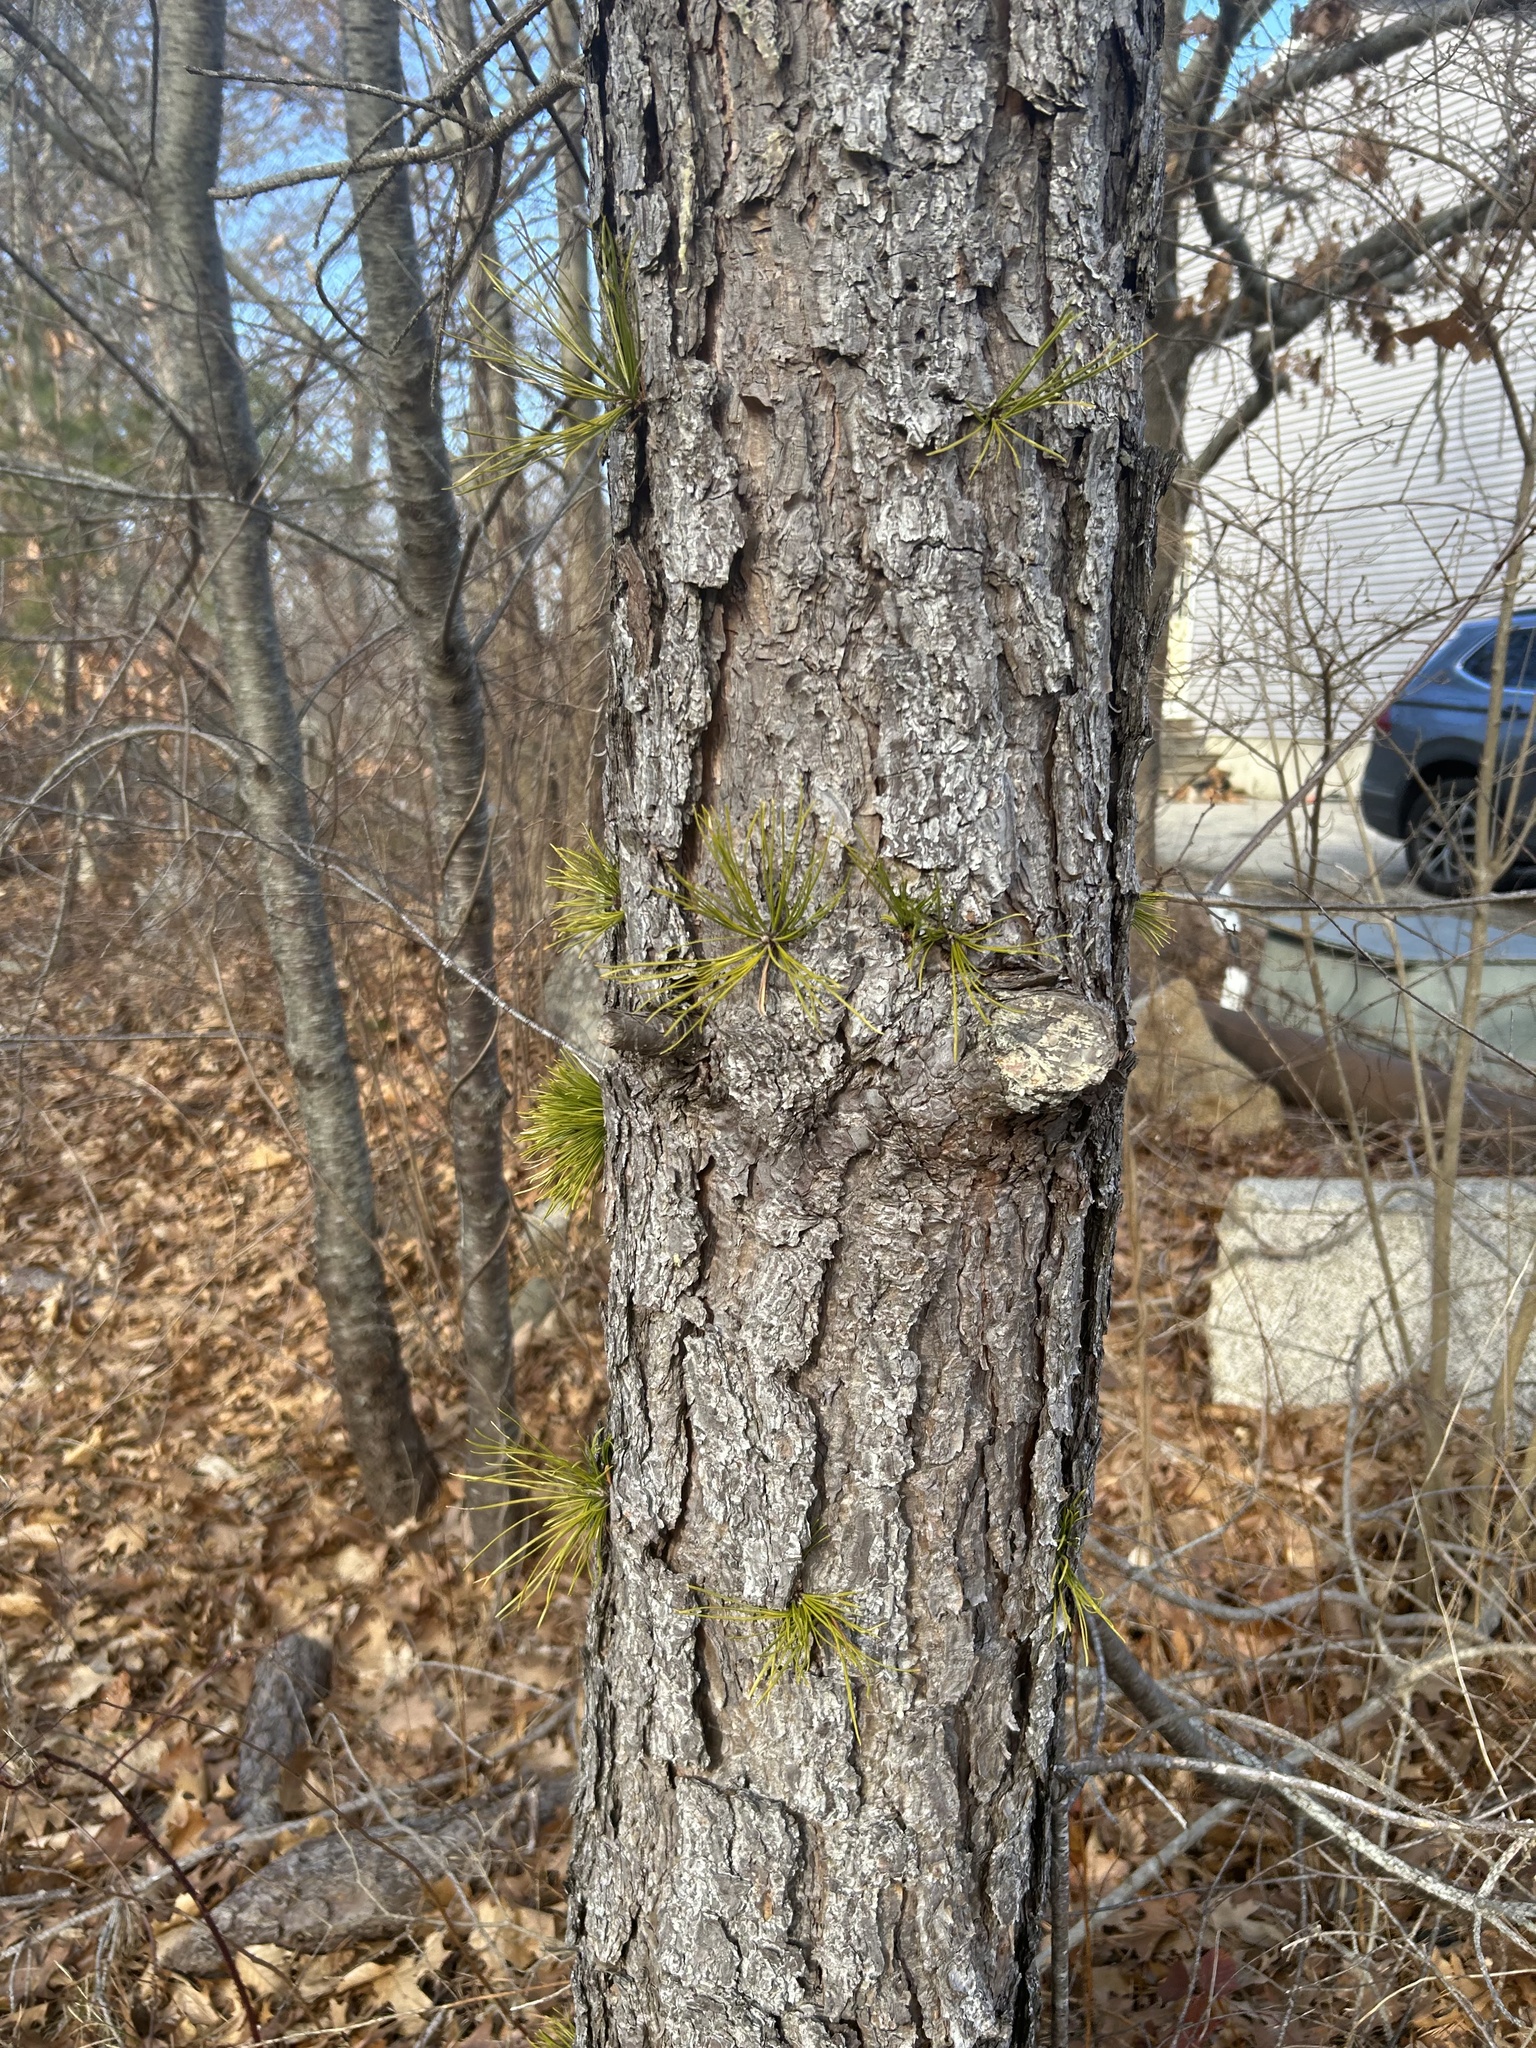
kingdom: Plantae
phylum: Tracheophyta
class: Pinopsida
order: Pinales
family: Pinaceae
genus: Pinus
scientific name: Pinus rigida
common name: Pitch pine
